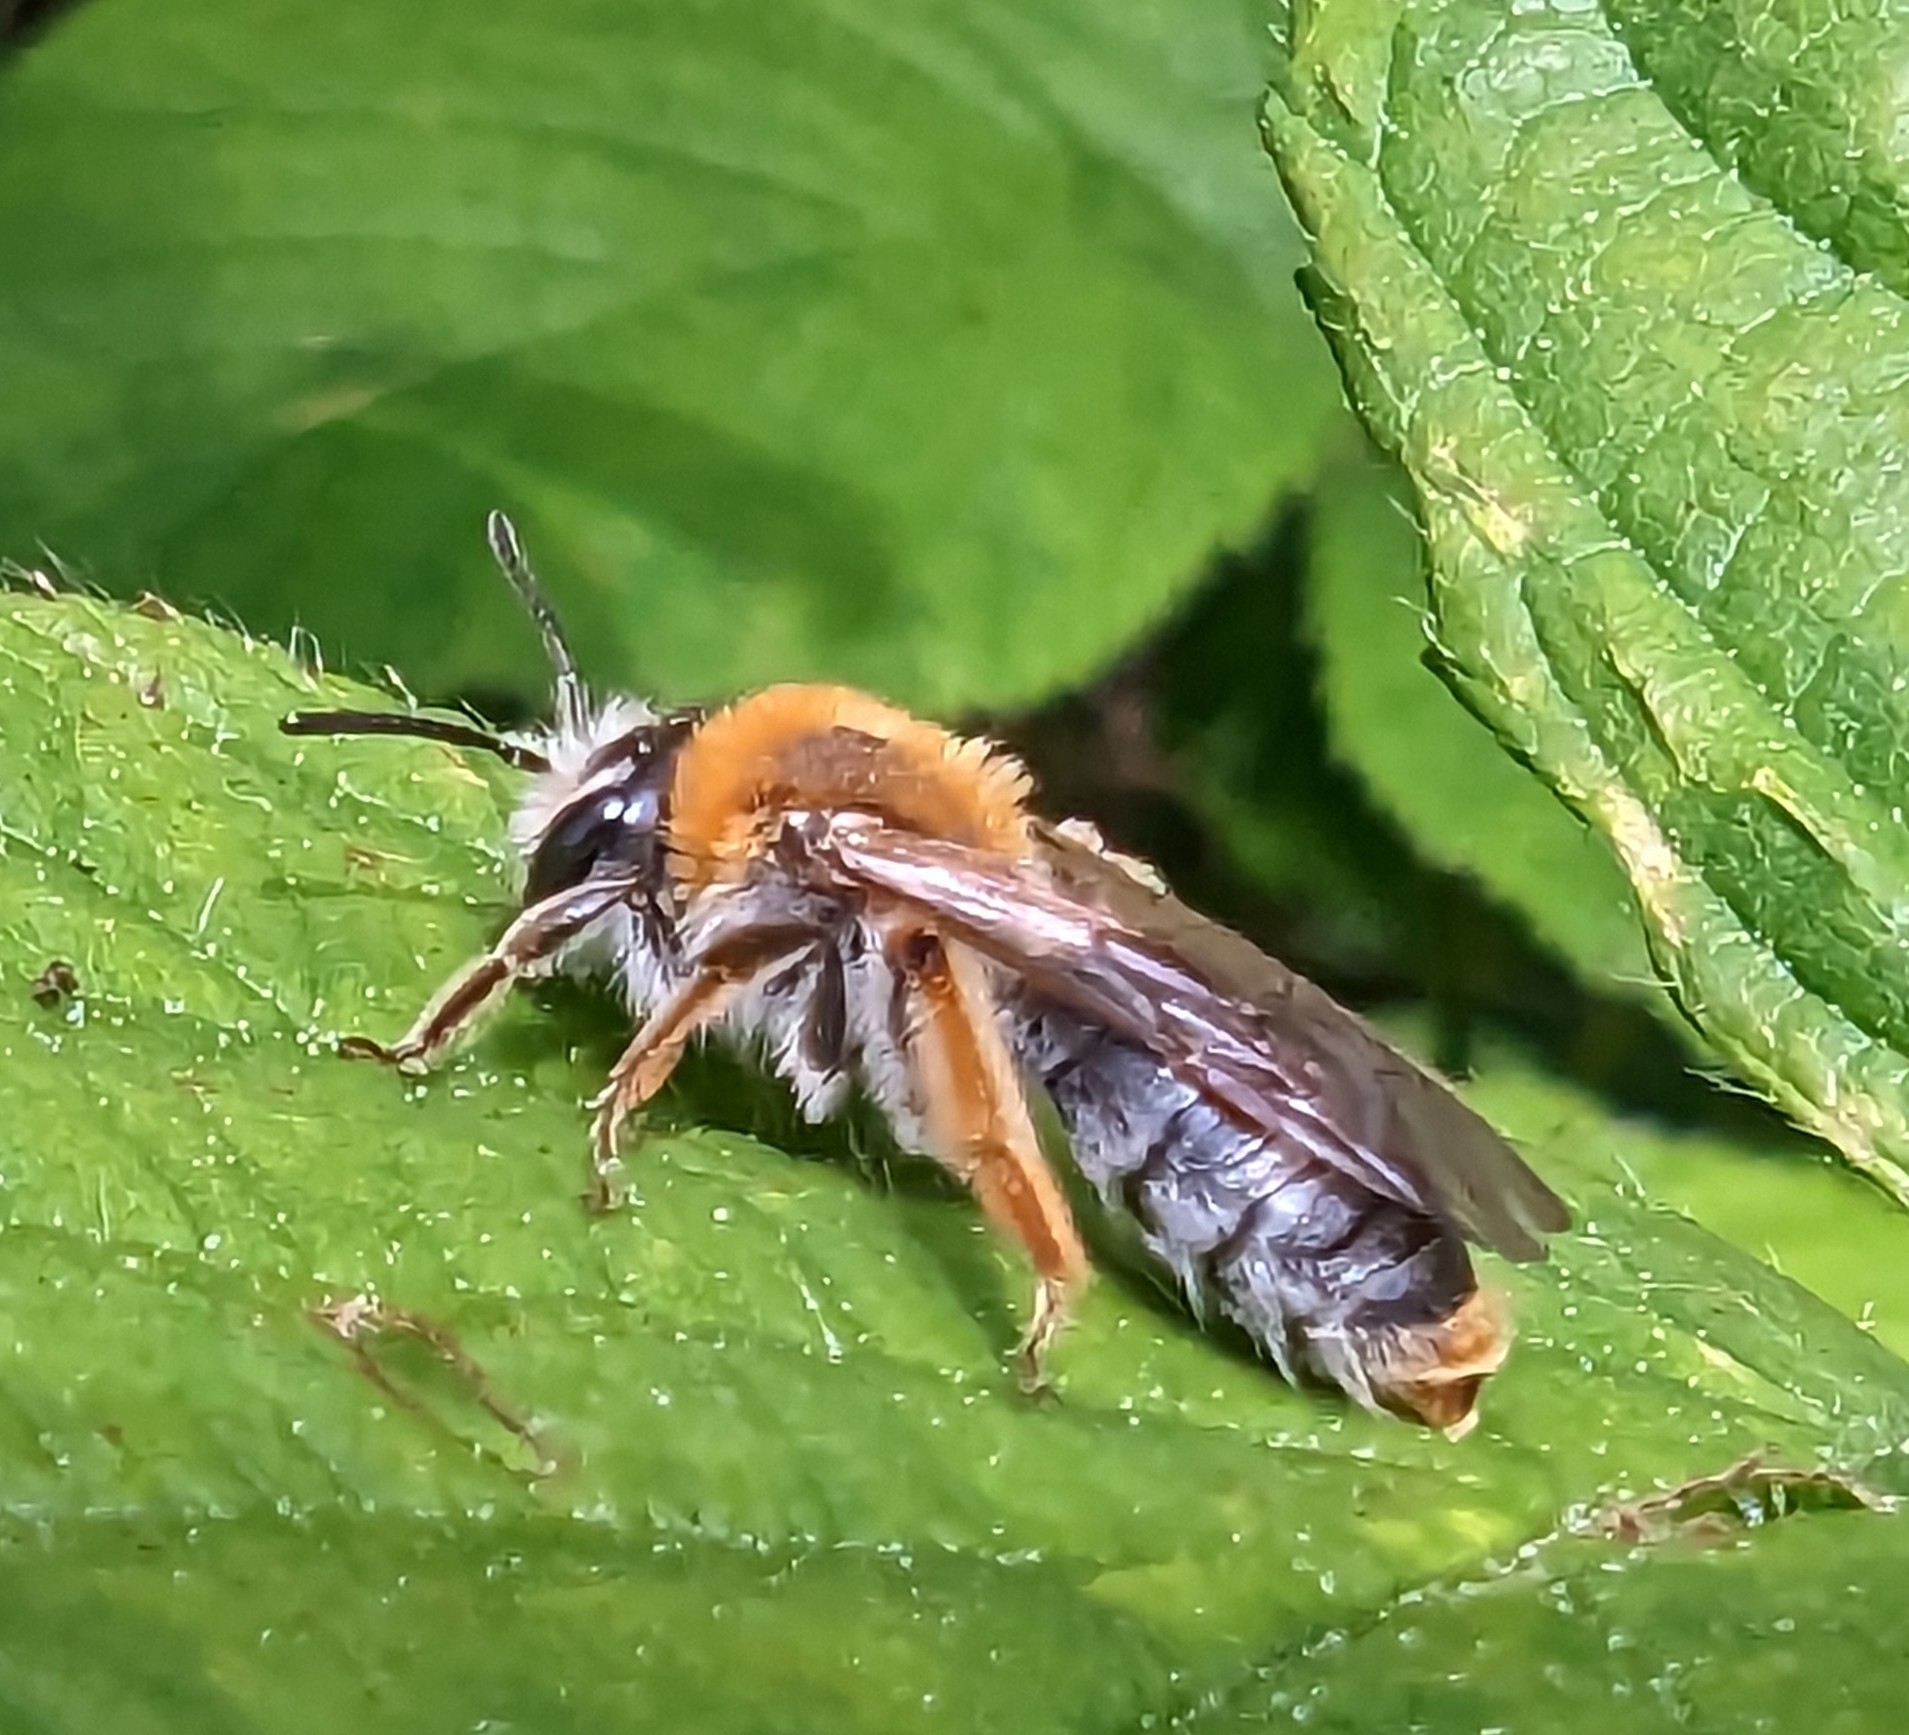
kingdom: Animalia
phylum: Arthropoda
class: Insecta
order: Hymenoptera
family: Andrenidae
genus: Andrena
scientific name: Andrena haemorrhoa
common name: Early mining bee
